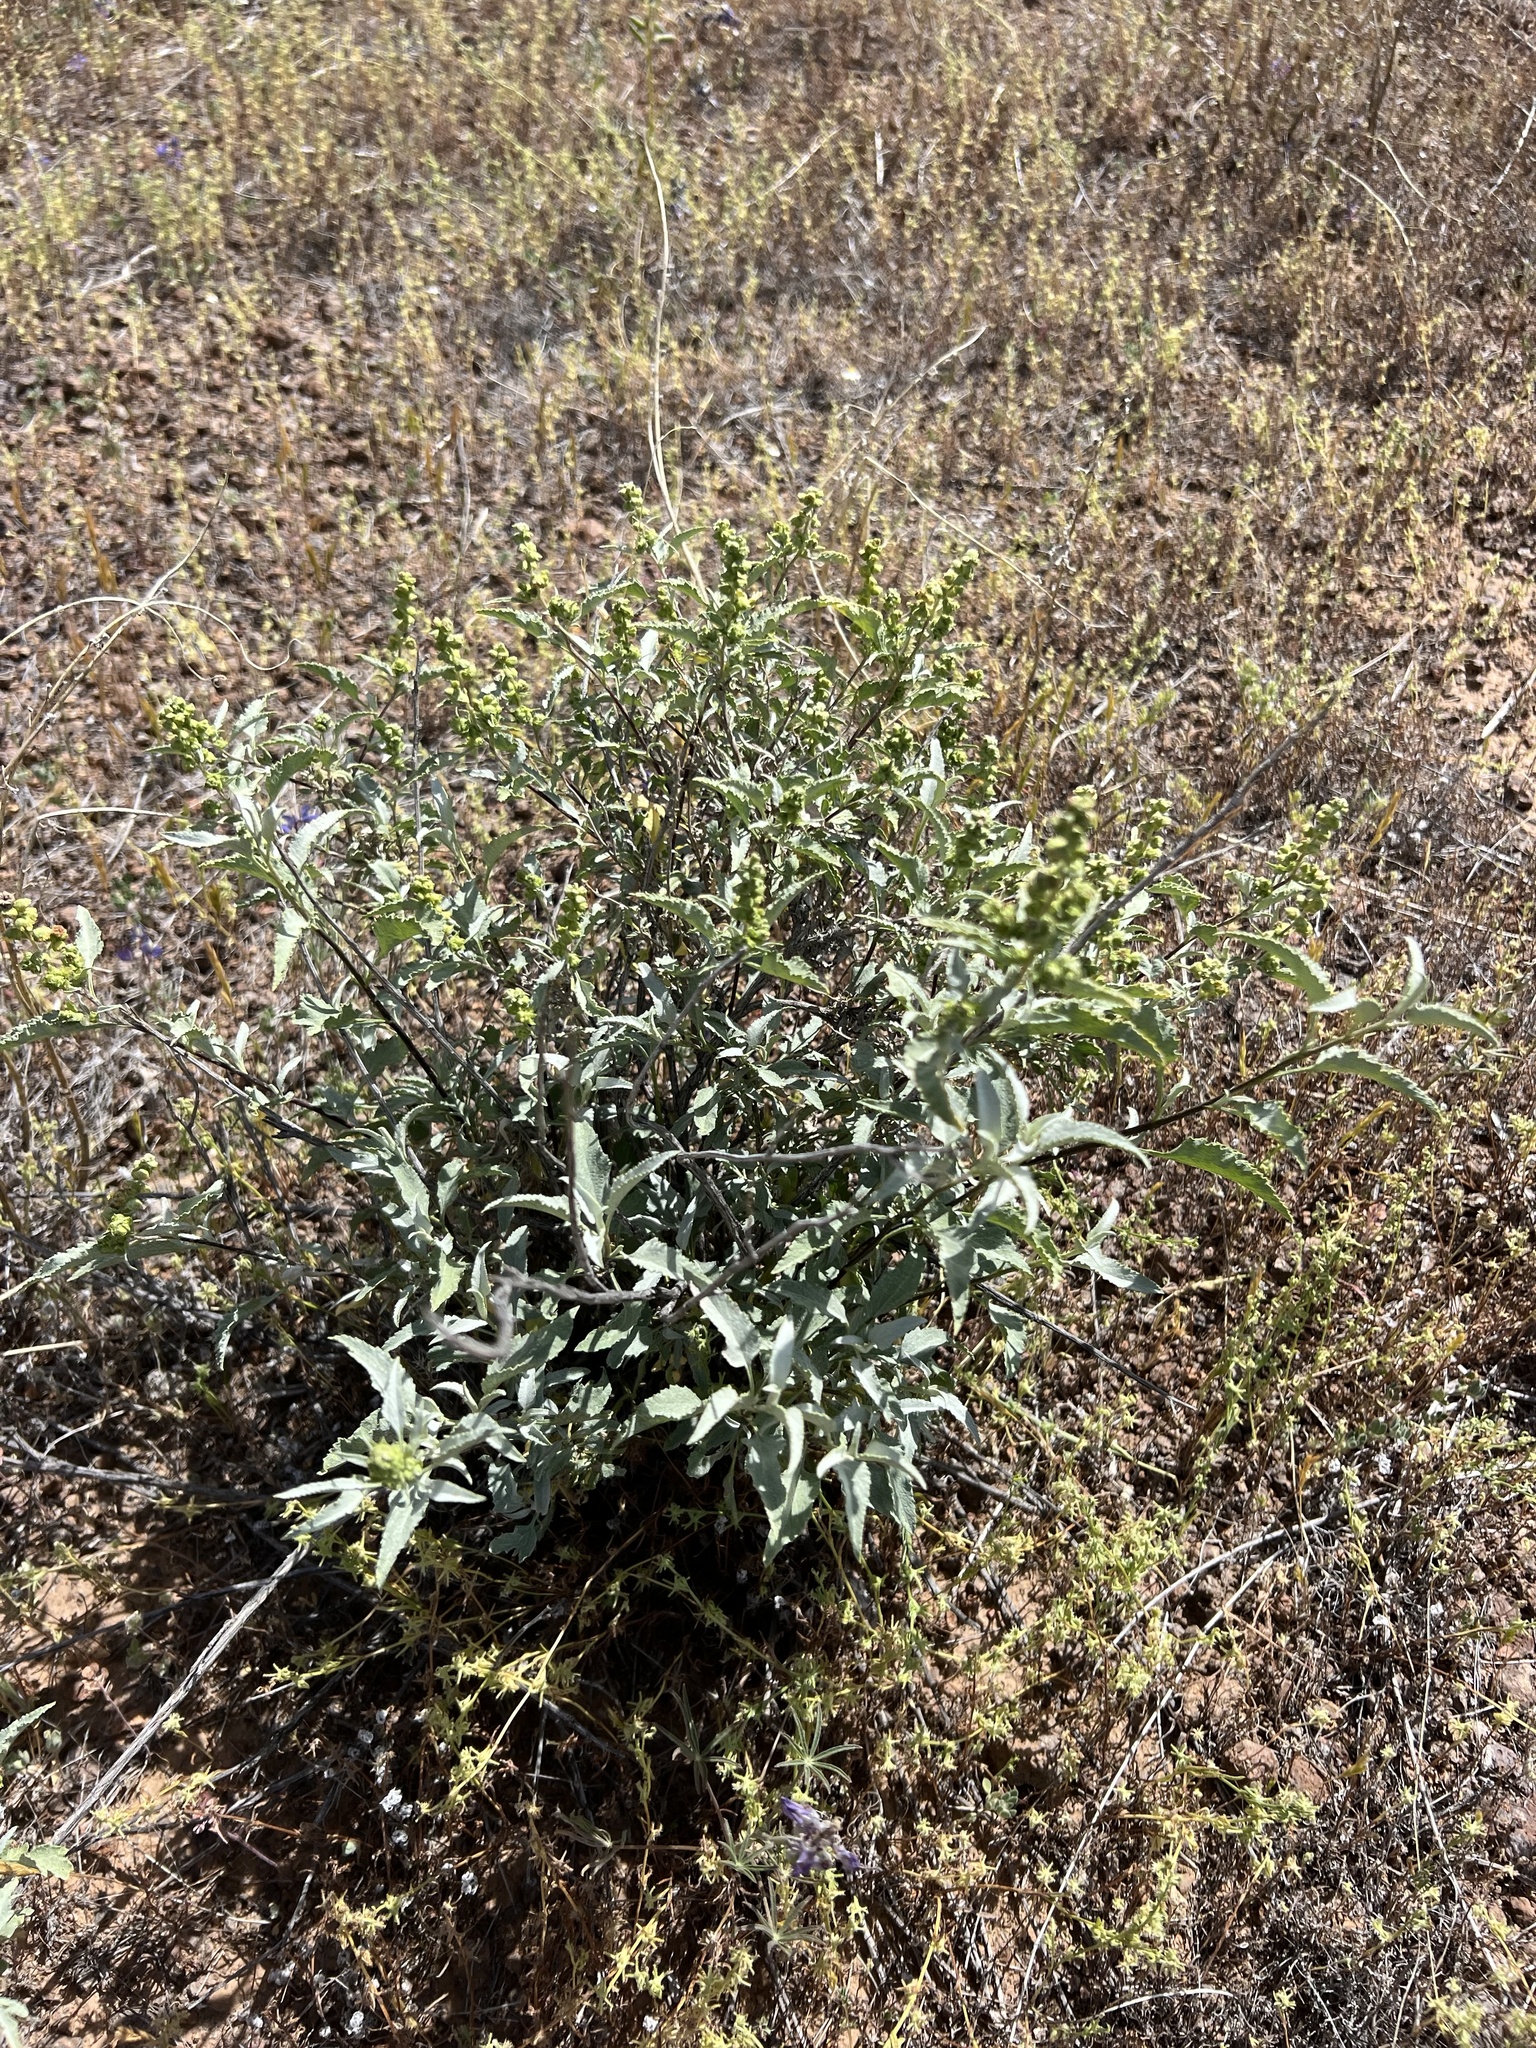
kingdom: Plantae
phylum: Tracheophyta
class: Magnoliopsida
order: Asterales
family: Asteraceae
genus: Ambrosia
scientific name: Ambrosia deltoidea
